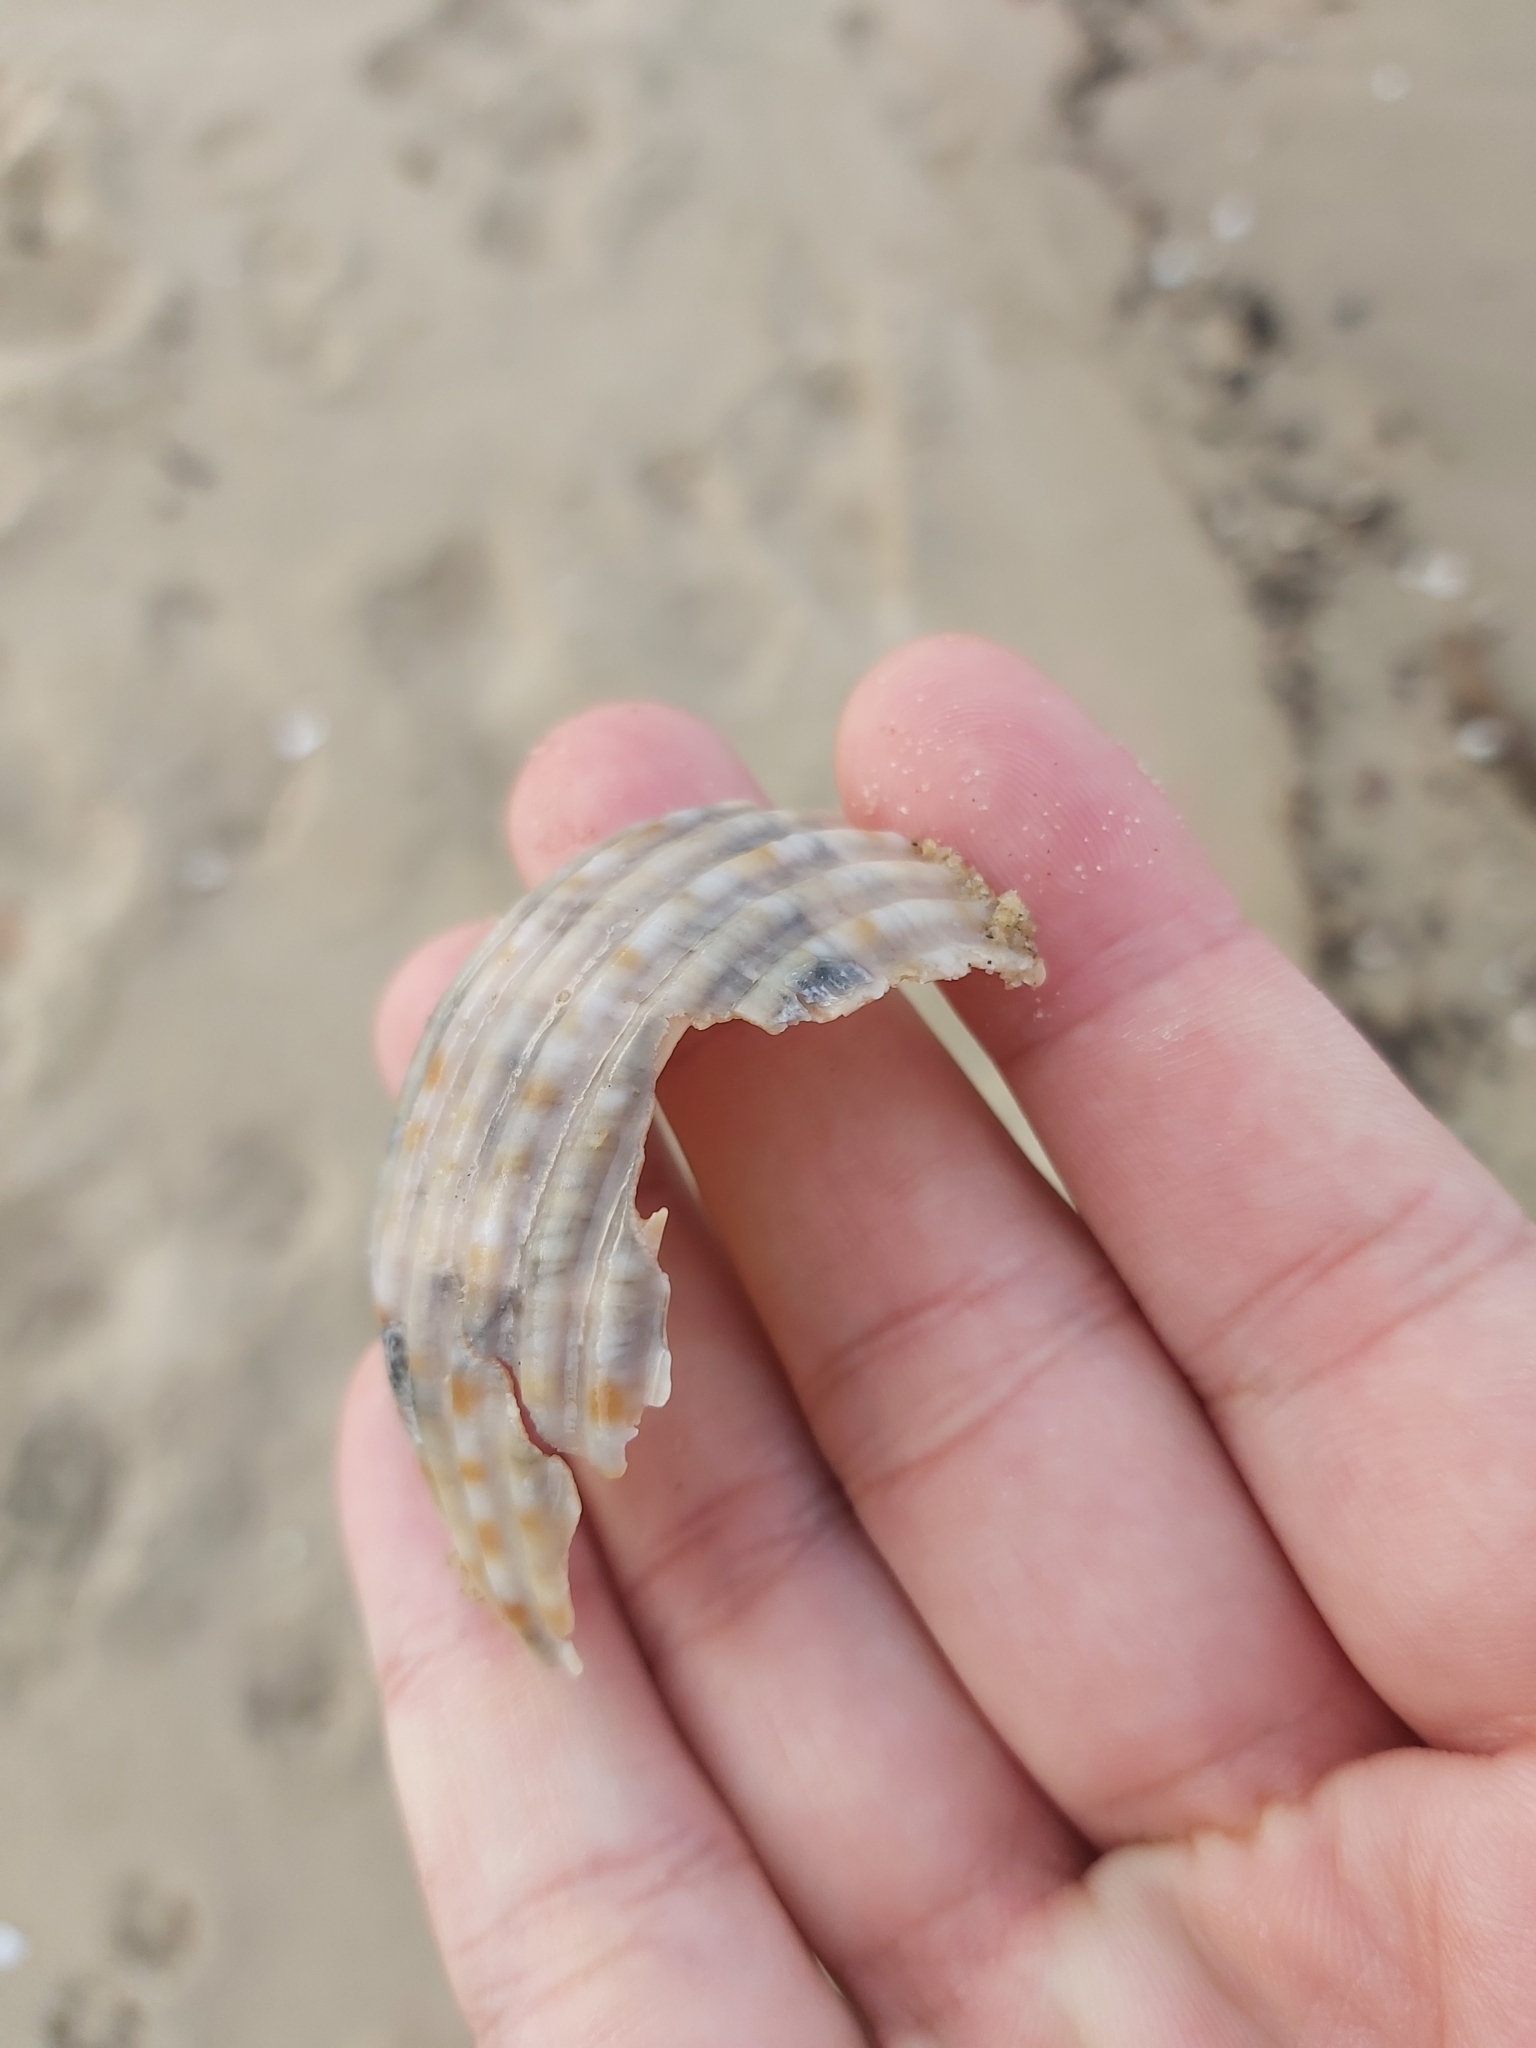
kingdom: Animalia
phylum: Mollusca
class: Gastropoda
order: Littorinimorpha
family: Tonnidae
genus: Tonna
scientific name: Tonna
